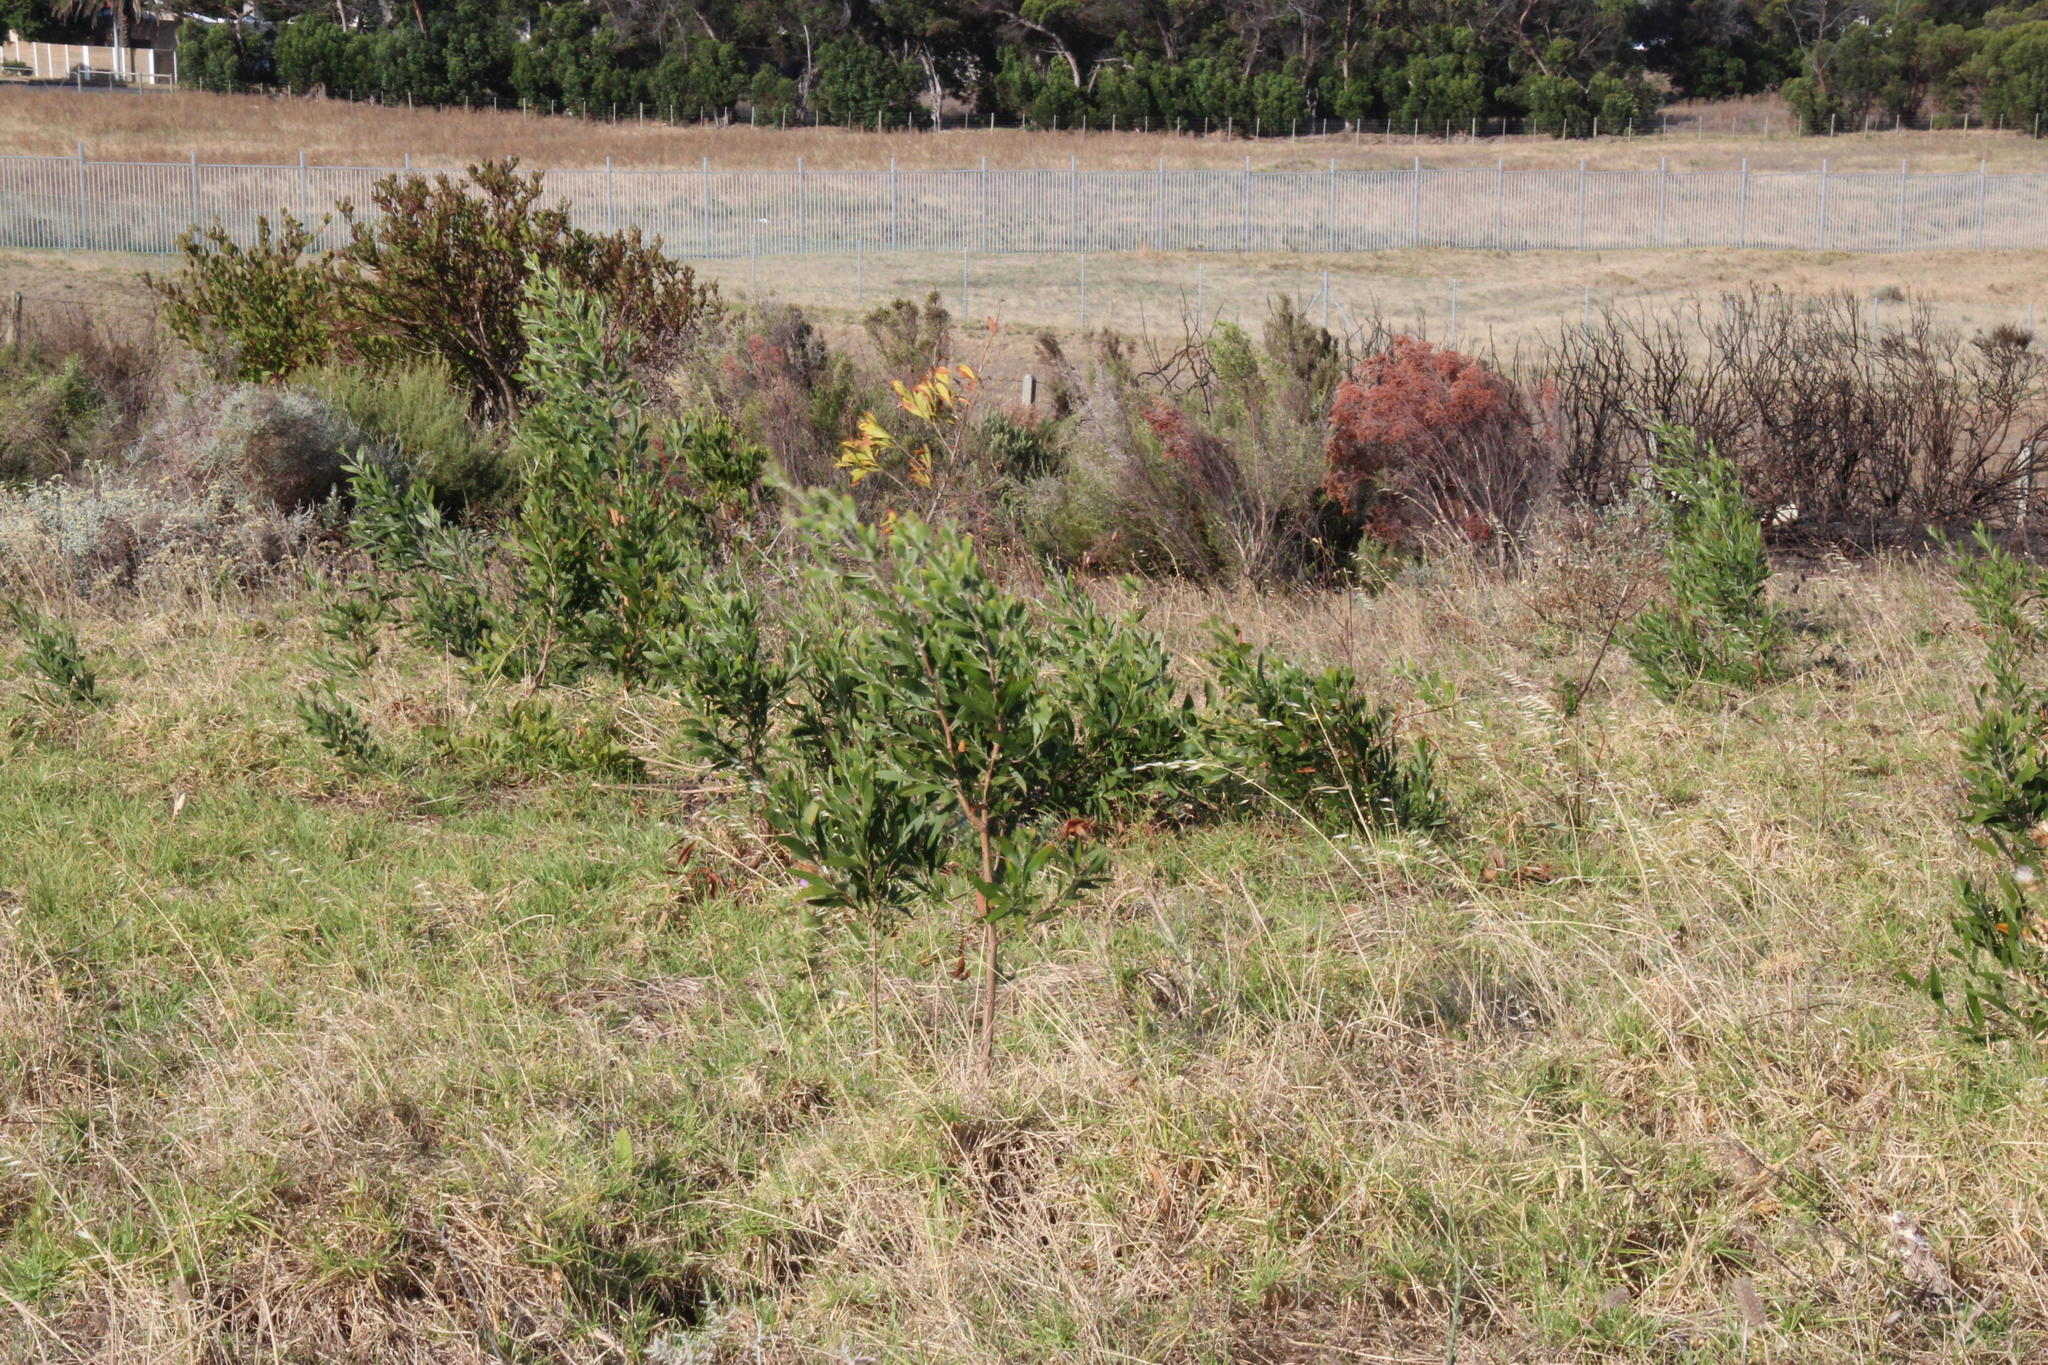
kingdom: Plantae
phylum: Tracheophyta
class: Magnoliopsida
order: Fabales
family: Fabaceae
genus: Acacia
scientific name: Acacia melanoxylon
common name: Blackwood
